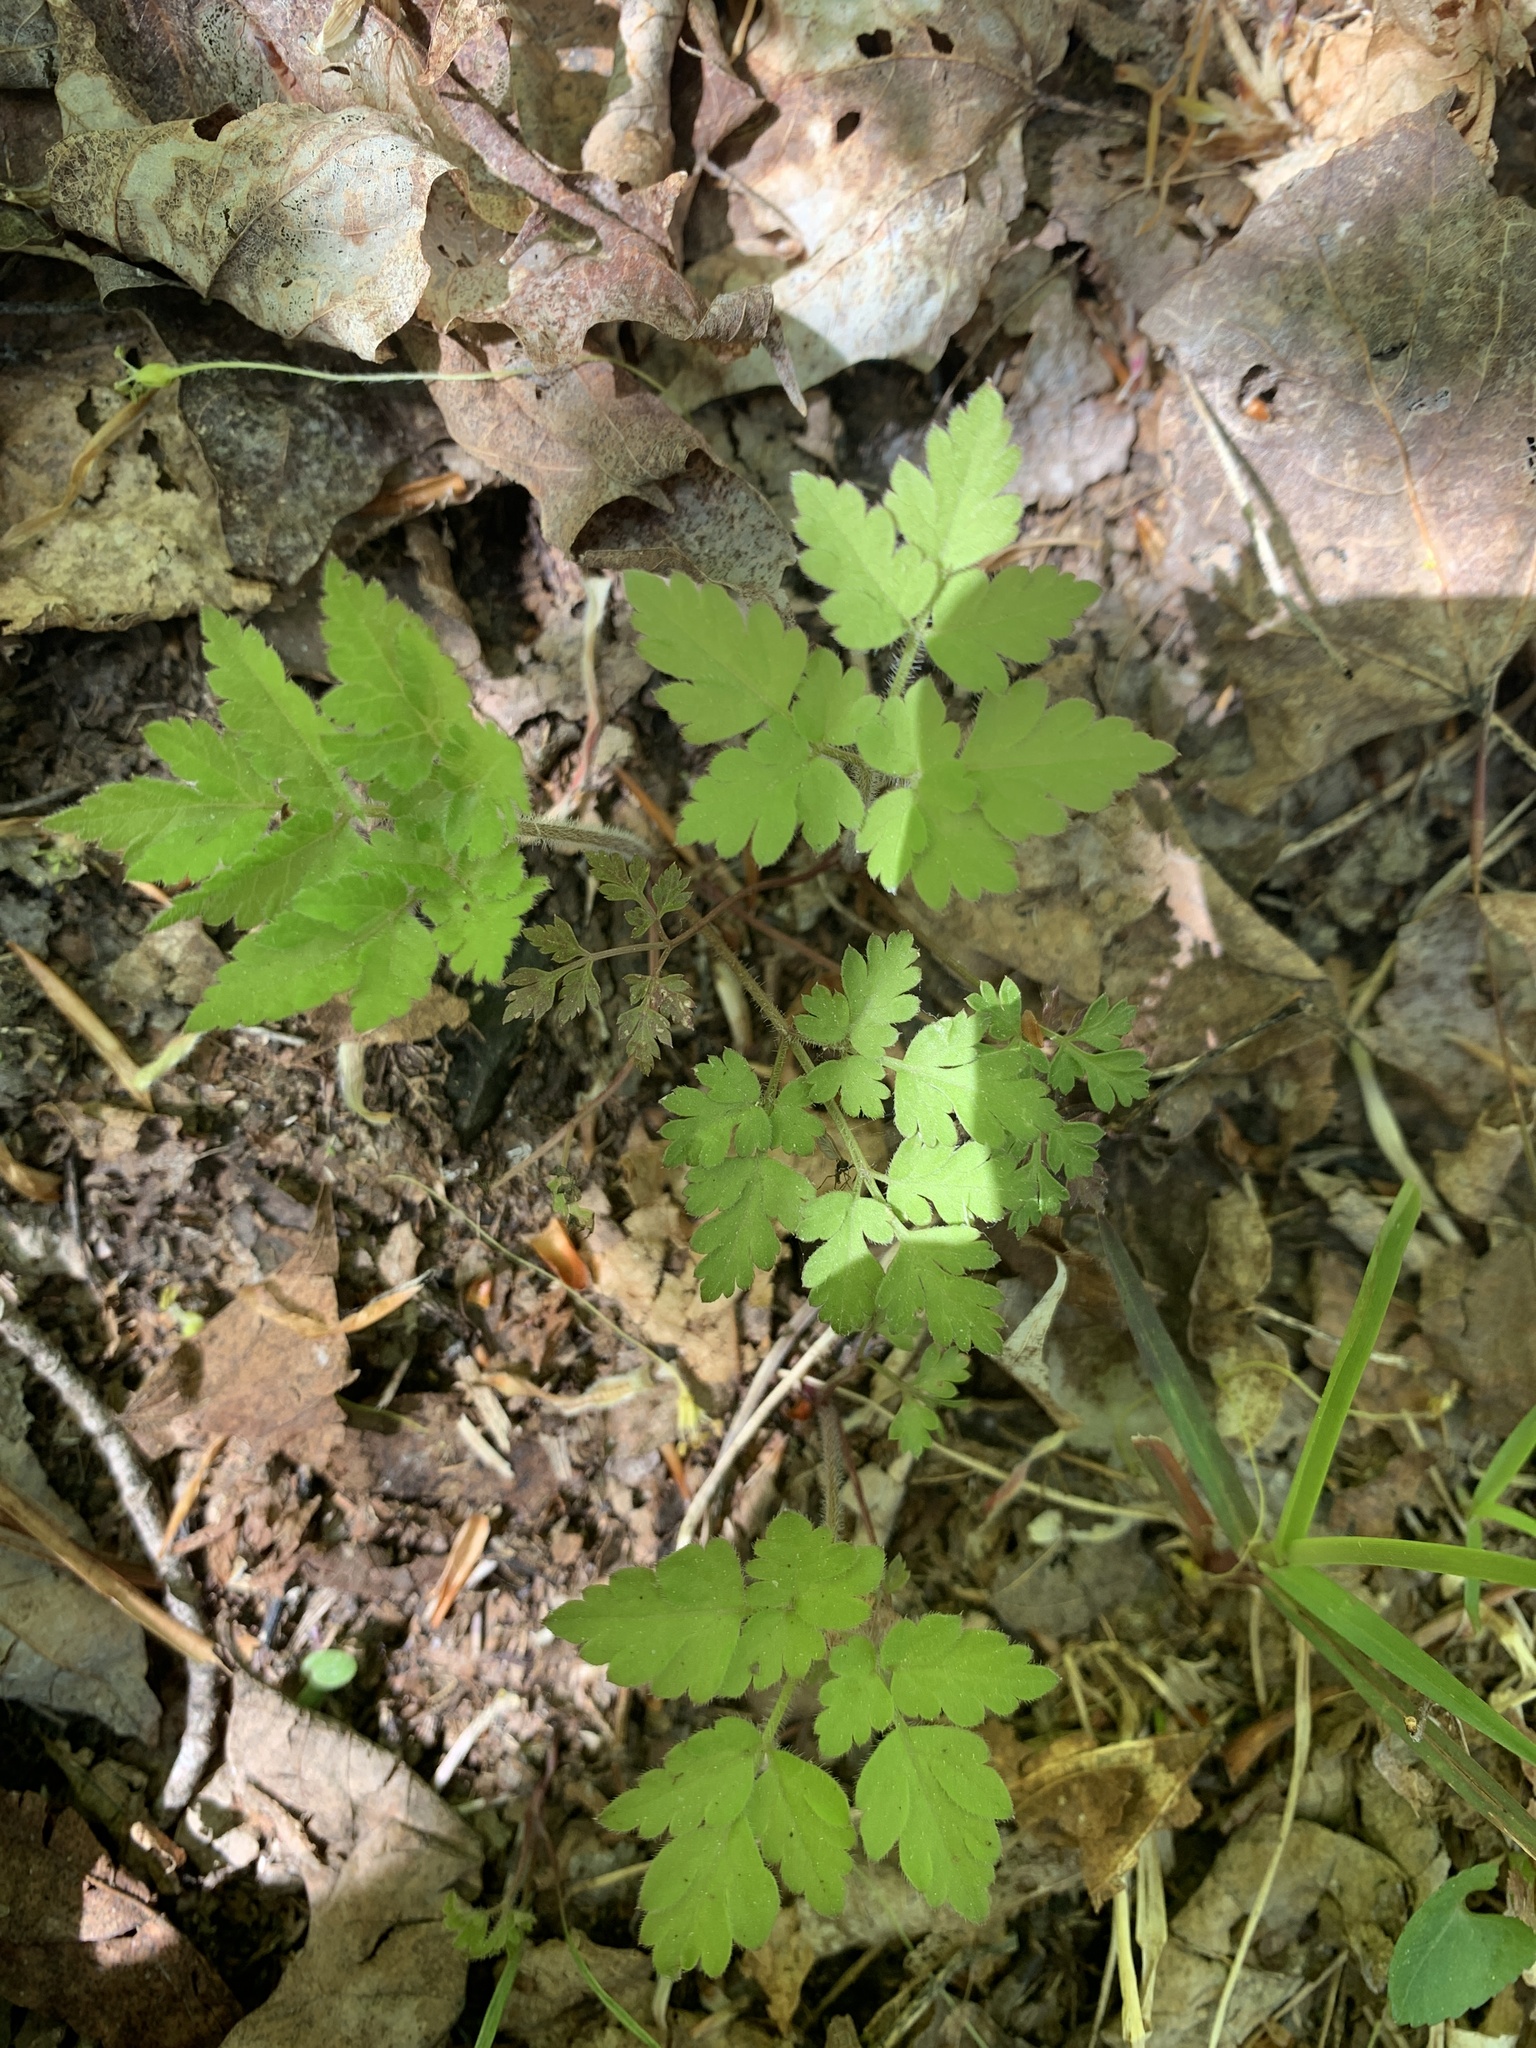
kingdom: Plantae
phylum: Tracheophyta
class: Magnoliopsida
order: Geraniales
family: Geraniaceae
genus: Geranium
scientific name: Geranium robertianum
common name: Herb-robert
